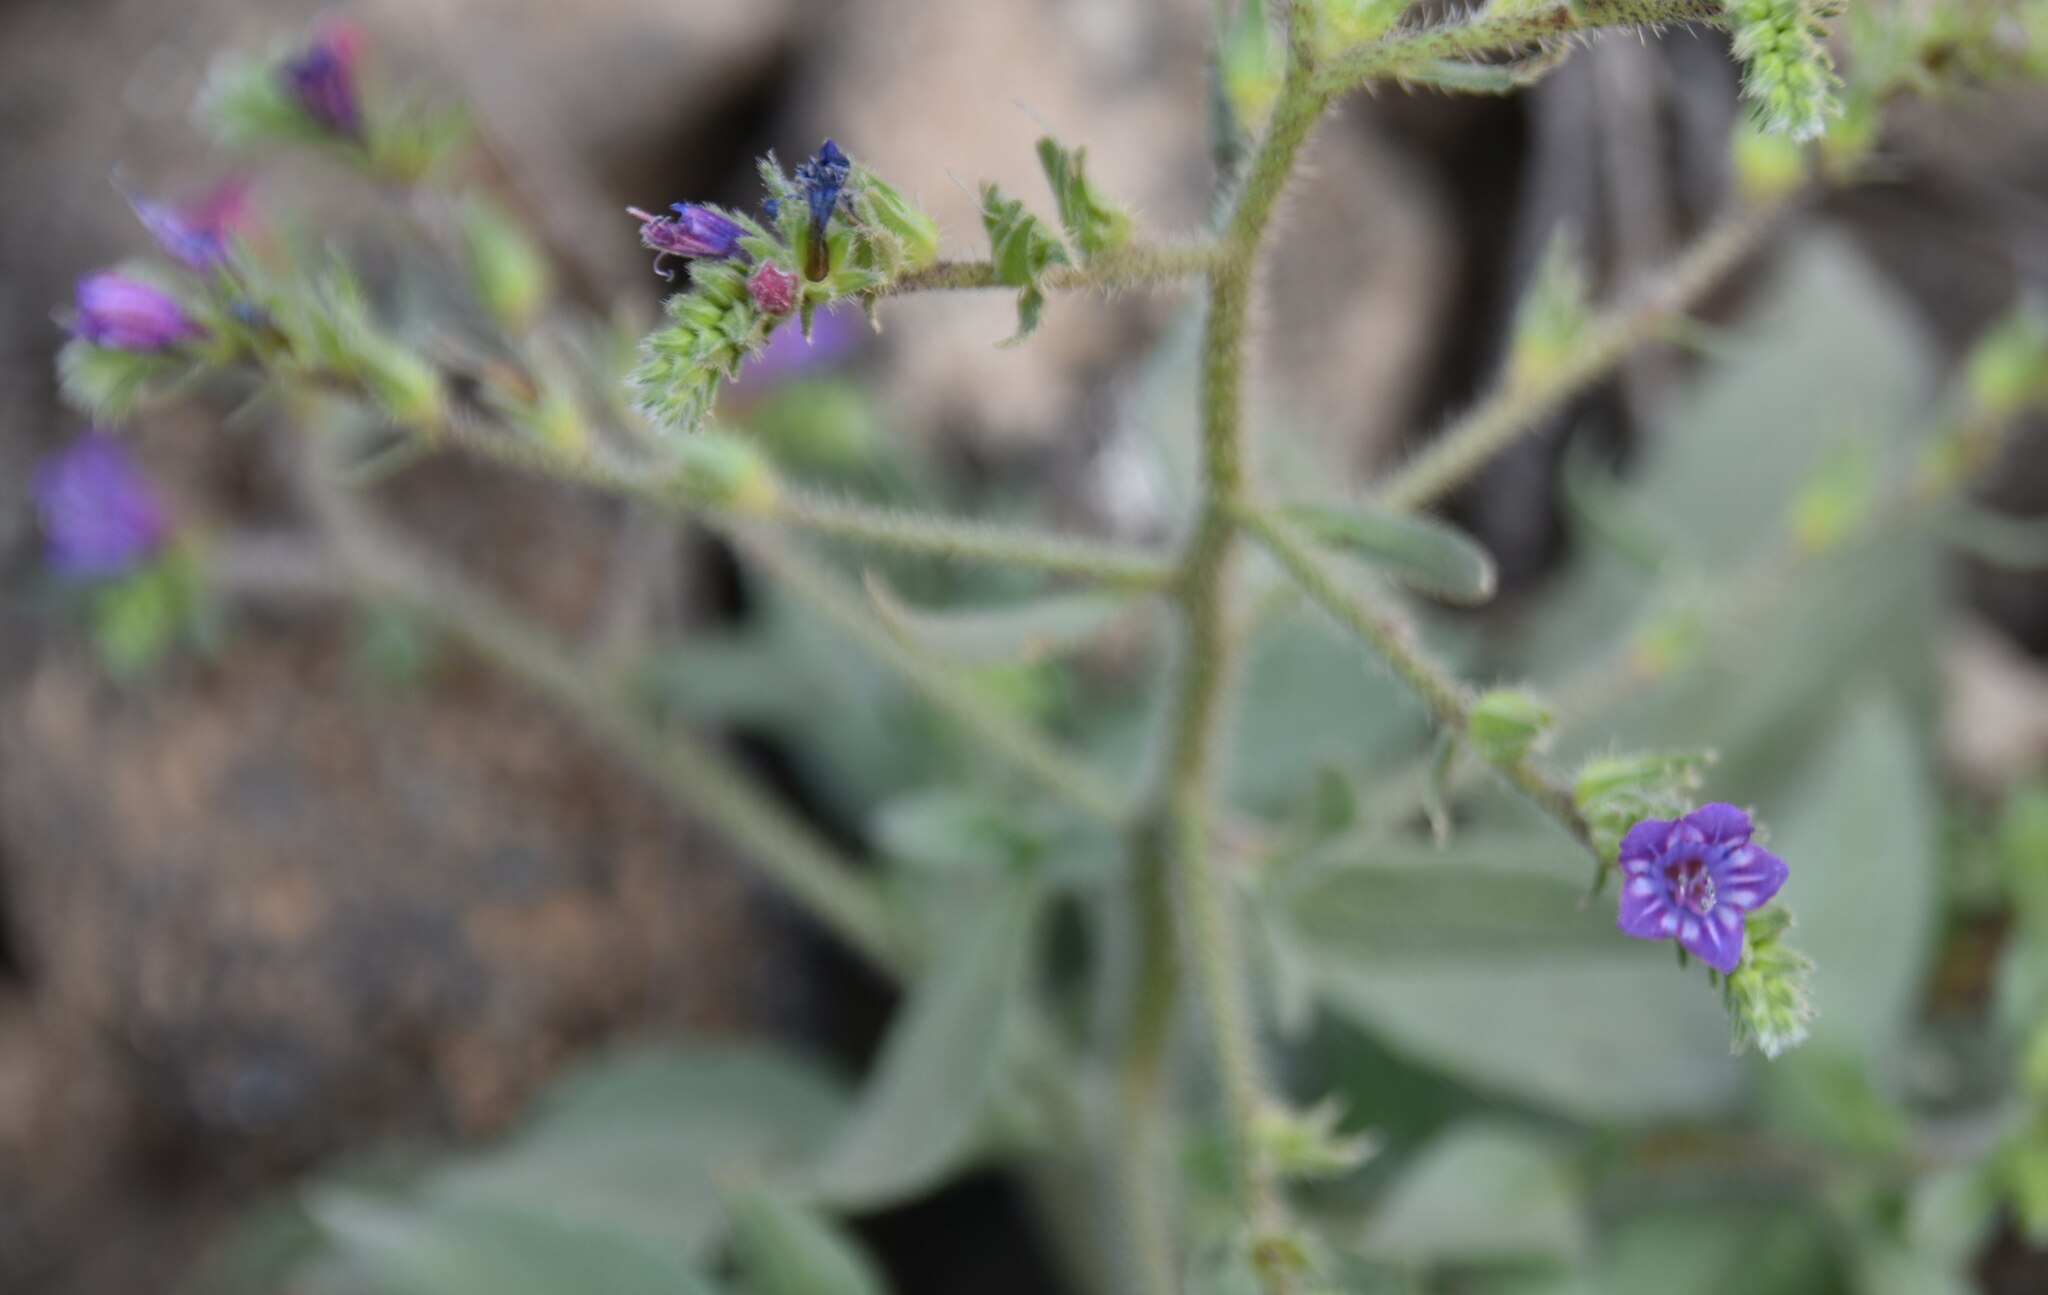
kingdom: Plantae
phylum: Tracheophyta
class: Magnoliopsida
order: Boraginales
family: Boraginaceae
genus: Echium
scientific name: Echium bonnetii
